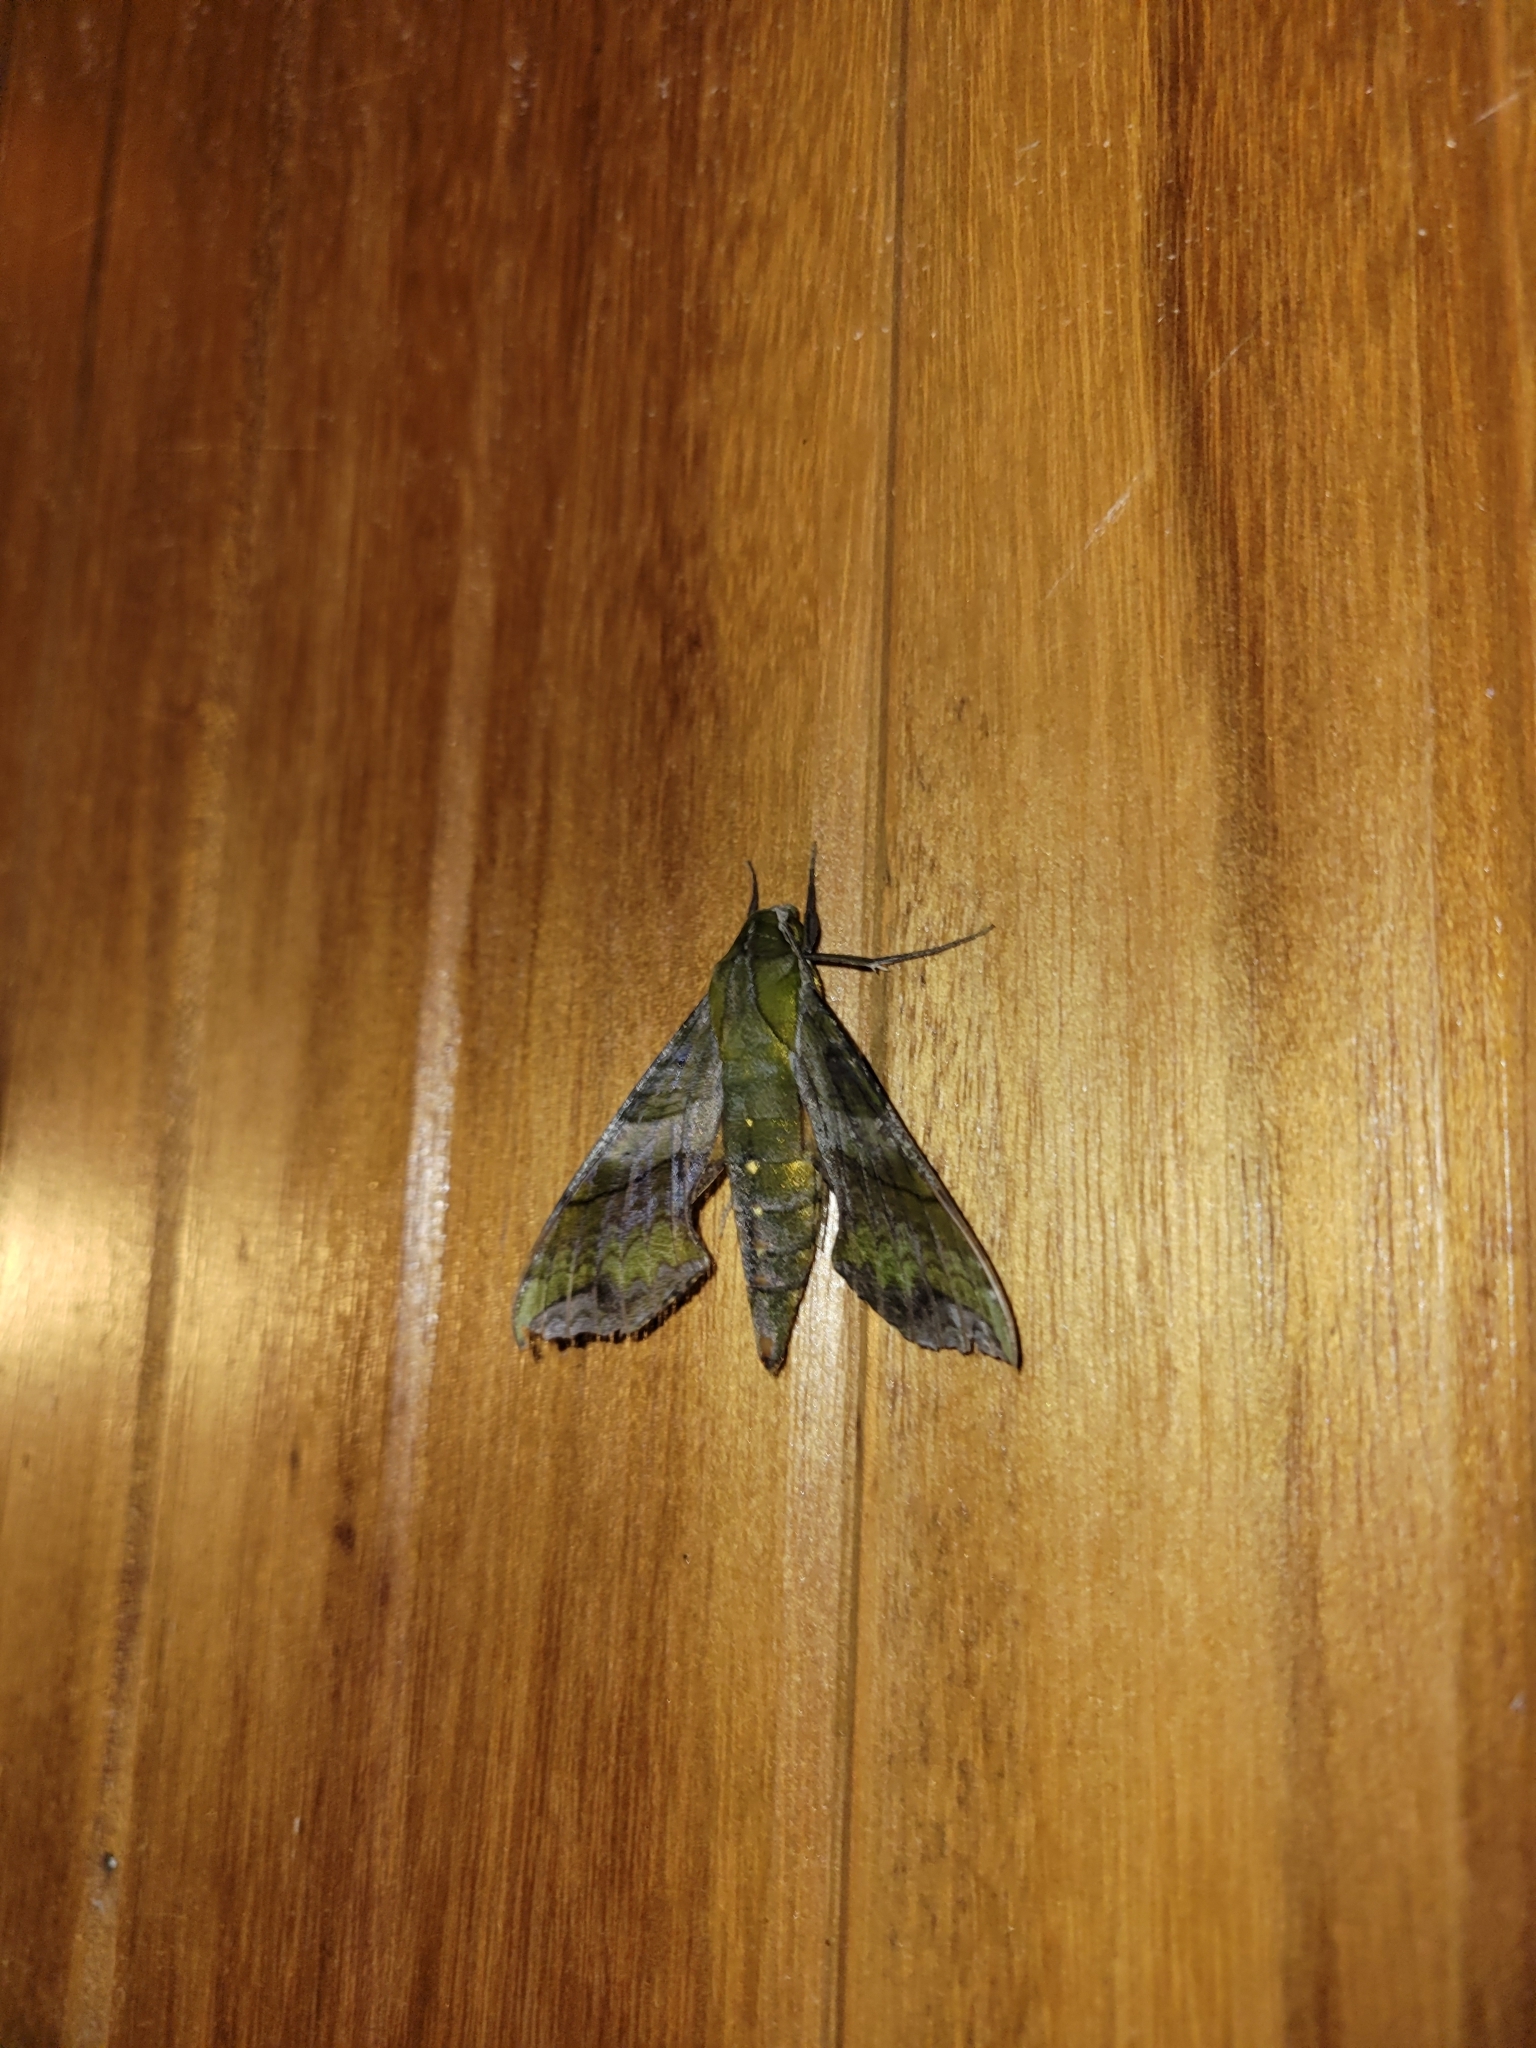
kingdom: Animalia
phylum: Arthropoda
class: Insecta
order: Lepidoptera
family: Sphingidae
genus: Xylophanes
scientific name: Xylophanes pluto
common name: Pluto sphinx
